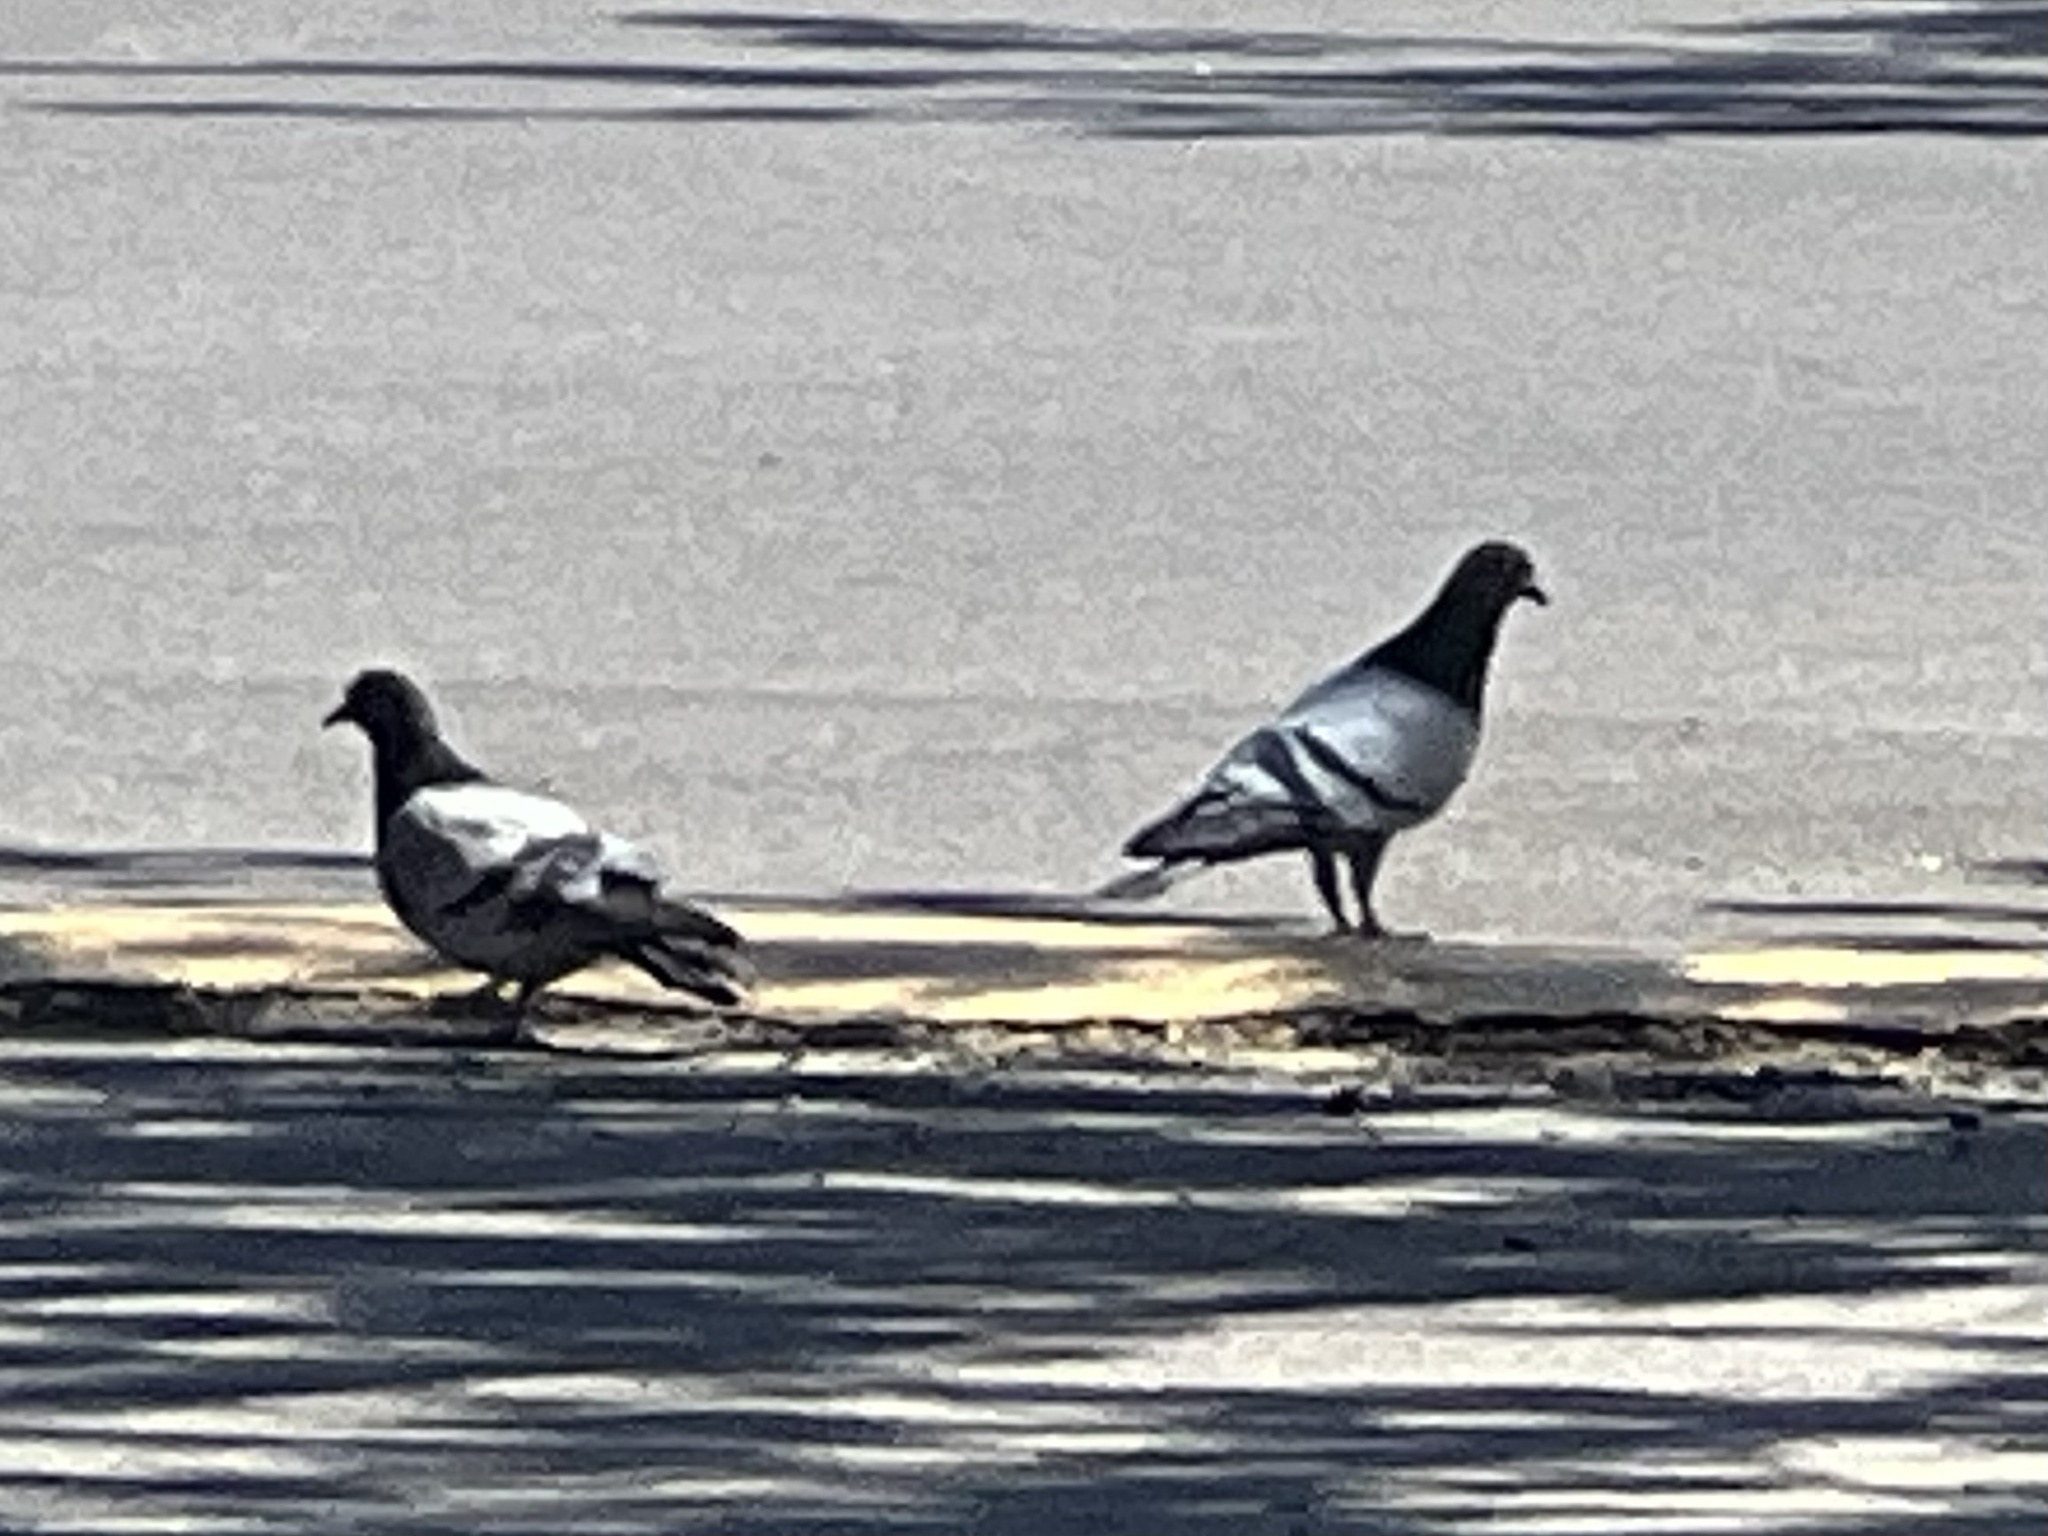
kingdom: Animalia
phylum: Chordata
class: Aves
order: Columbiformes
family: Columbidae
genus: Columba
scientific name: Columba livia
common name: Rock pigeon
